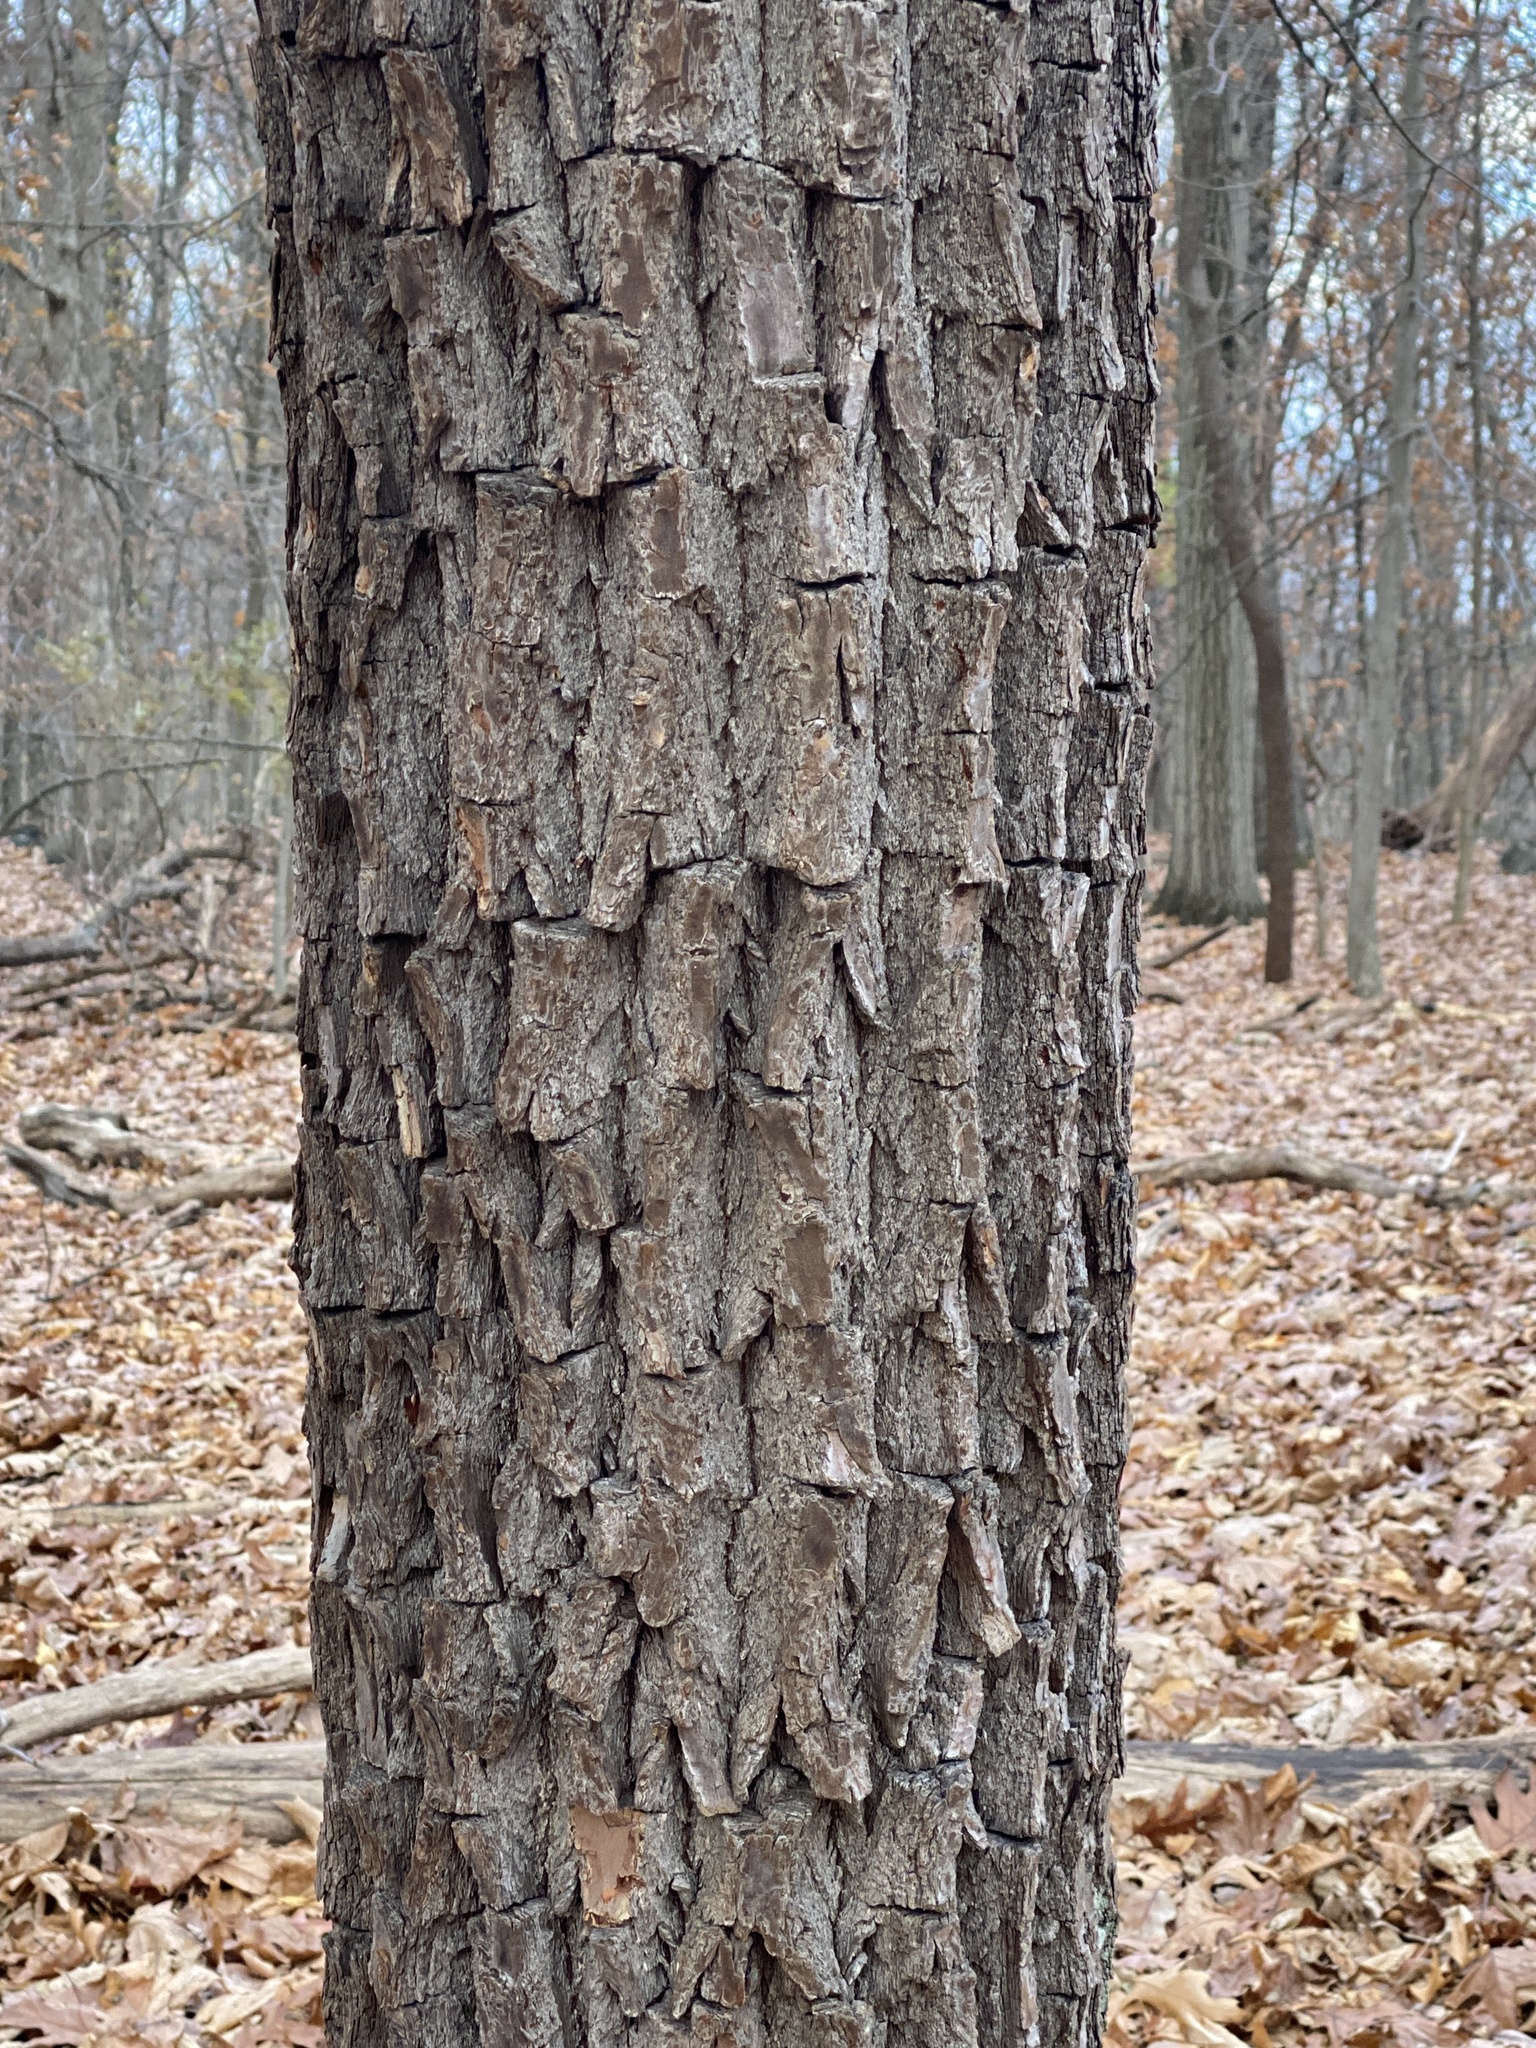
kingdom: Plantae
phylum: Tracheophyta
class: Magnoliopsida
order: Laurales
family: Lauraceae
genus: Sassafras
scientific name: Sassafras albidum
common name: Sassafras
